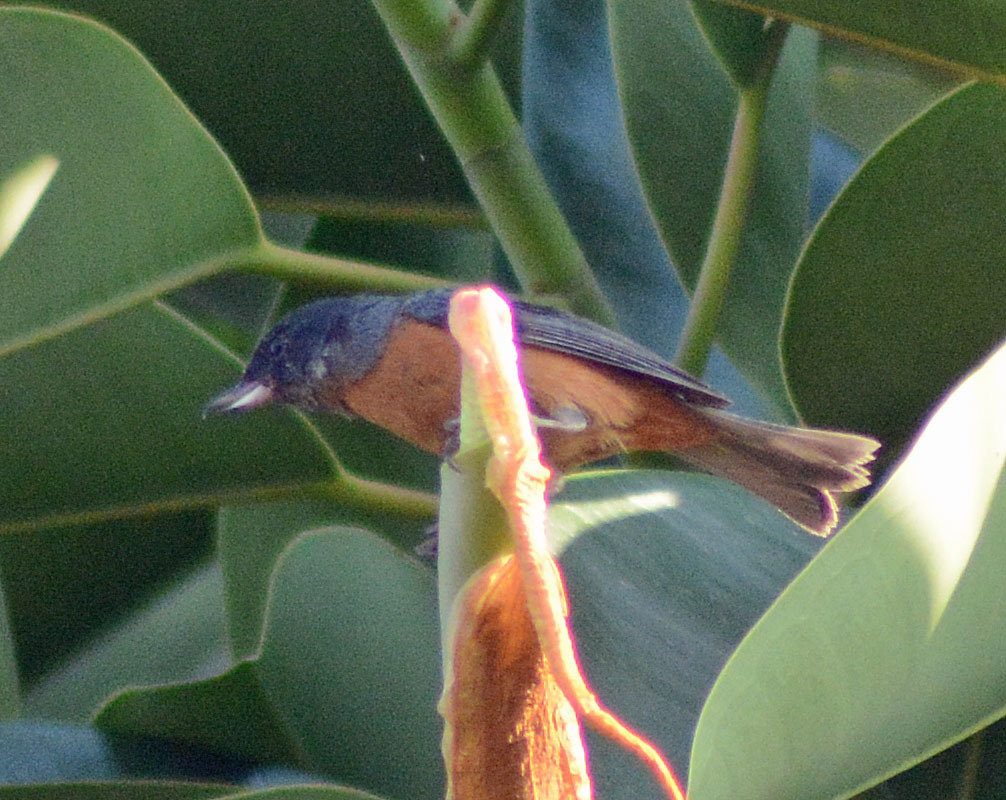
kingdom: Animalia
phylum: Chordata
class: Aves
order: Passeriformes
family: Thraupidae
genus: Diglossa
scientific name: Diglossa baritula
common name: Cinnamon-bellied flowerpiercer
